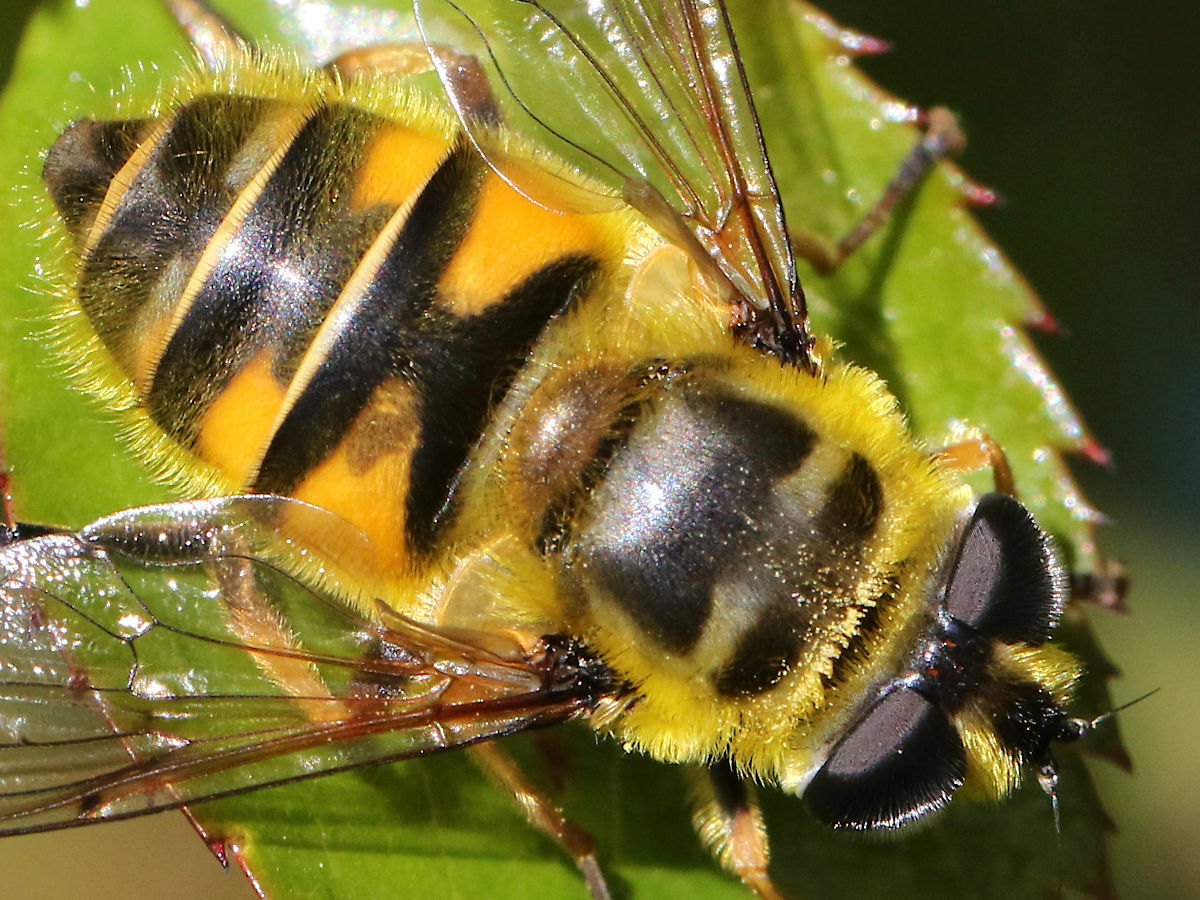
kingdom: Animalia
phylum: Arthropoda
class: Insecta
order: Diptera
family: Syrphidae
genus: Myathropa
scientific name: Myathropa florea
